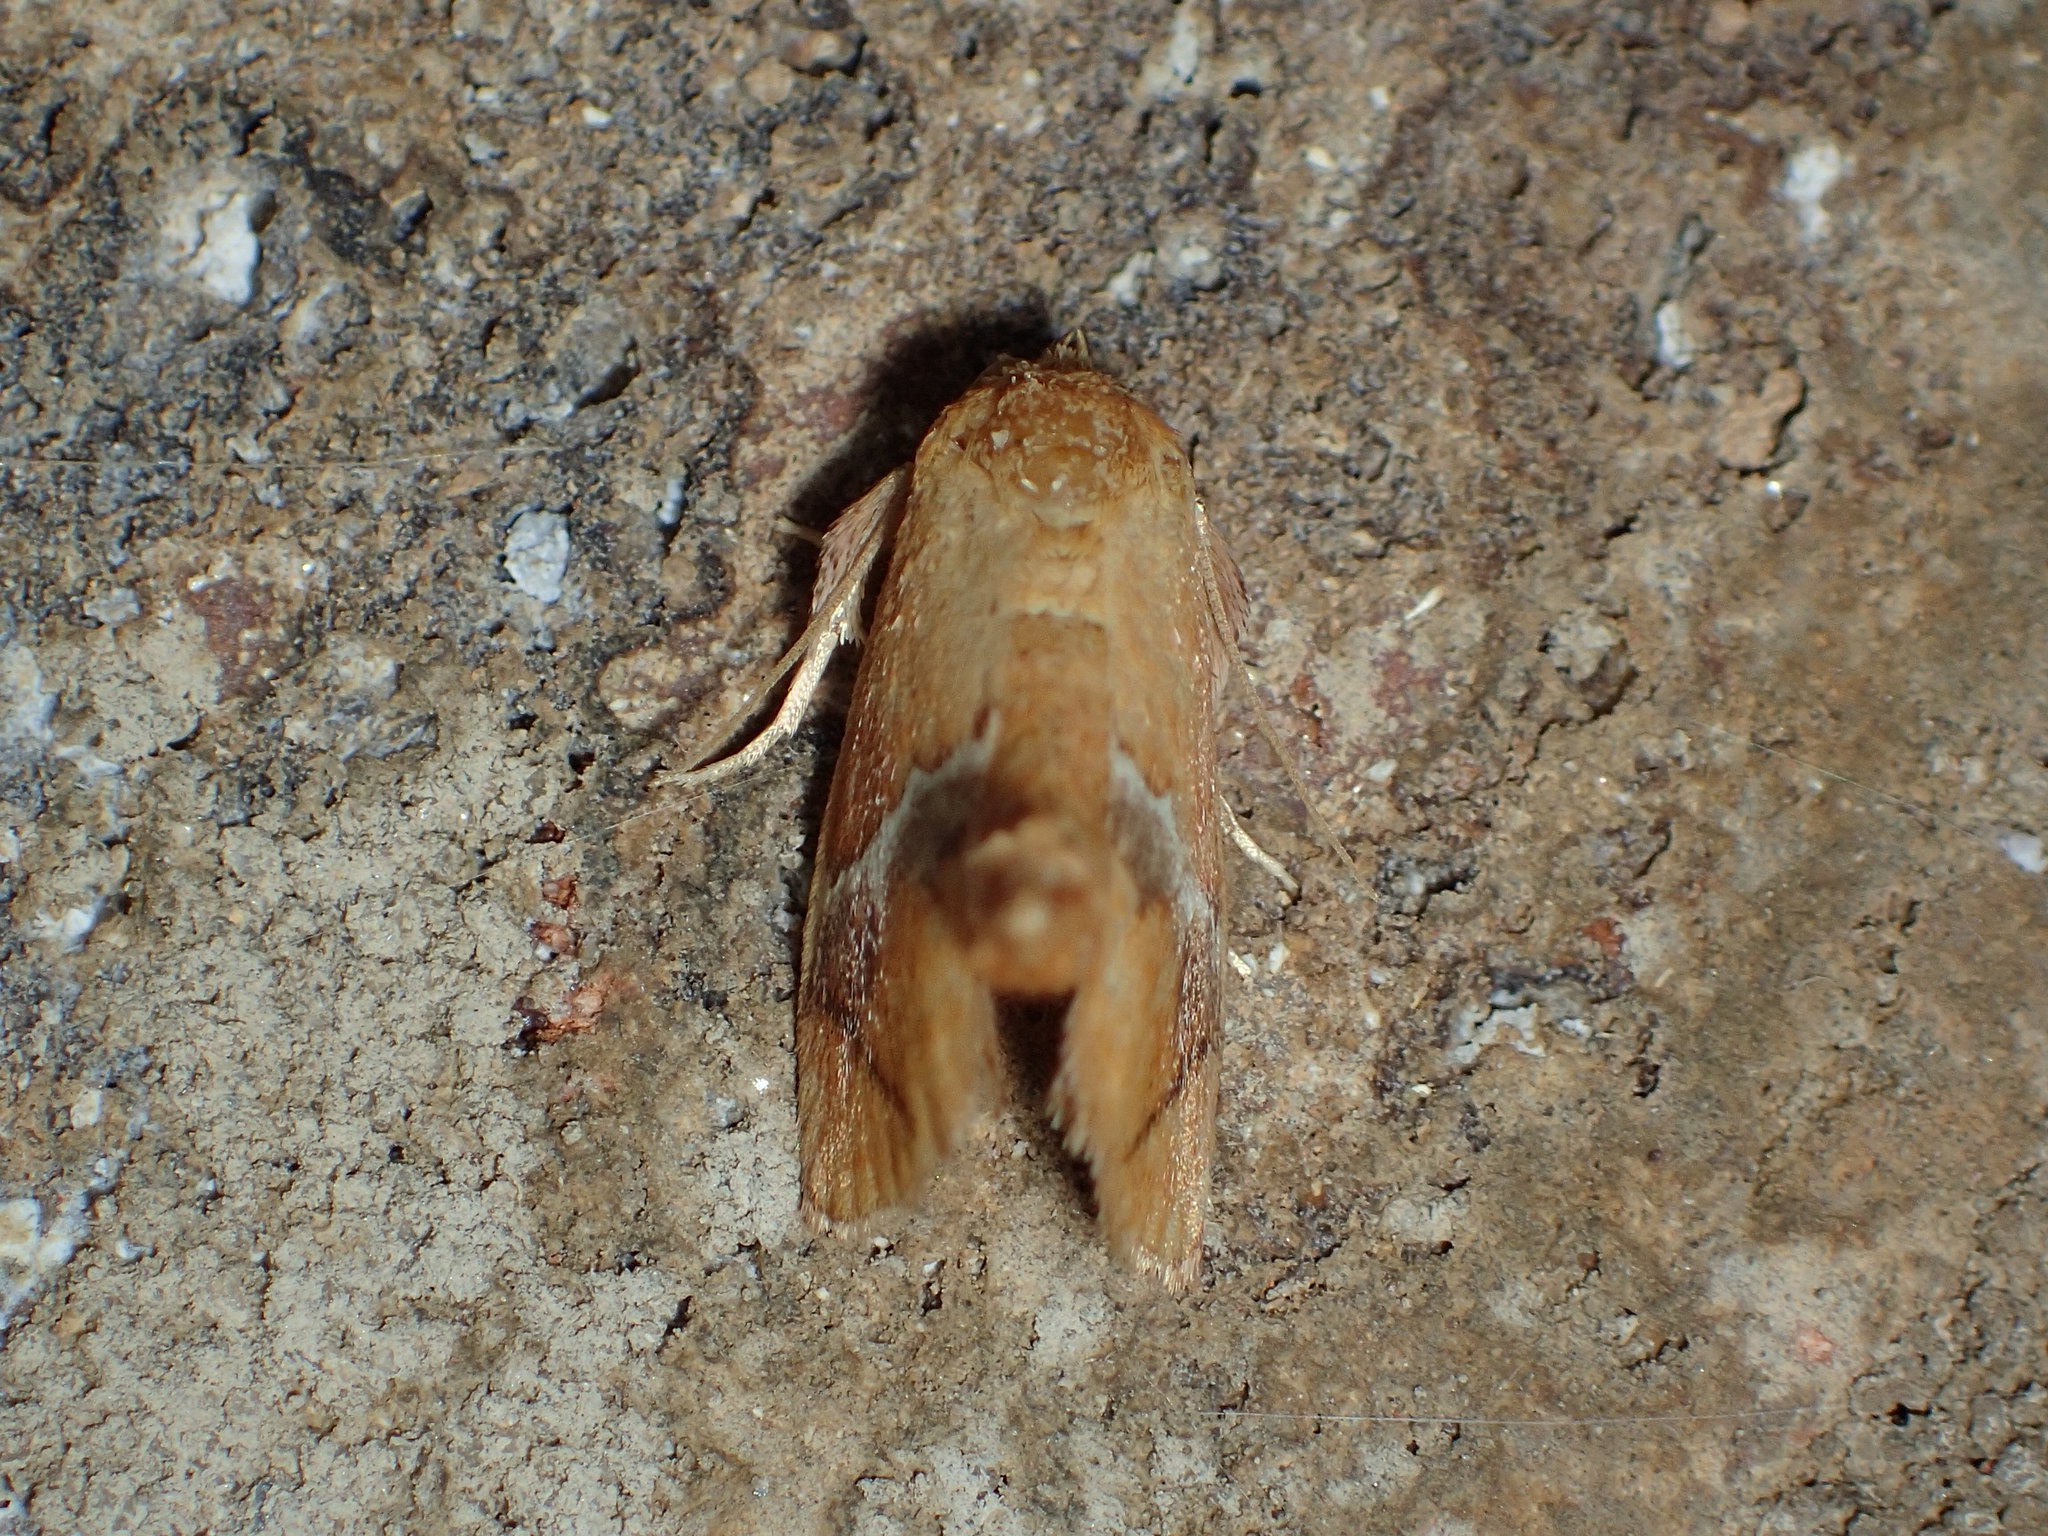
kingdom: Animalia
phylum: Arthropoda
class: Insecta
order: Lepidoptera
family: Limacodidae
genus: Lithacodes
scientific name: Lithacodes fasciola
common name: Yellow-shouldered slug moth
